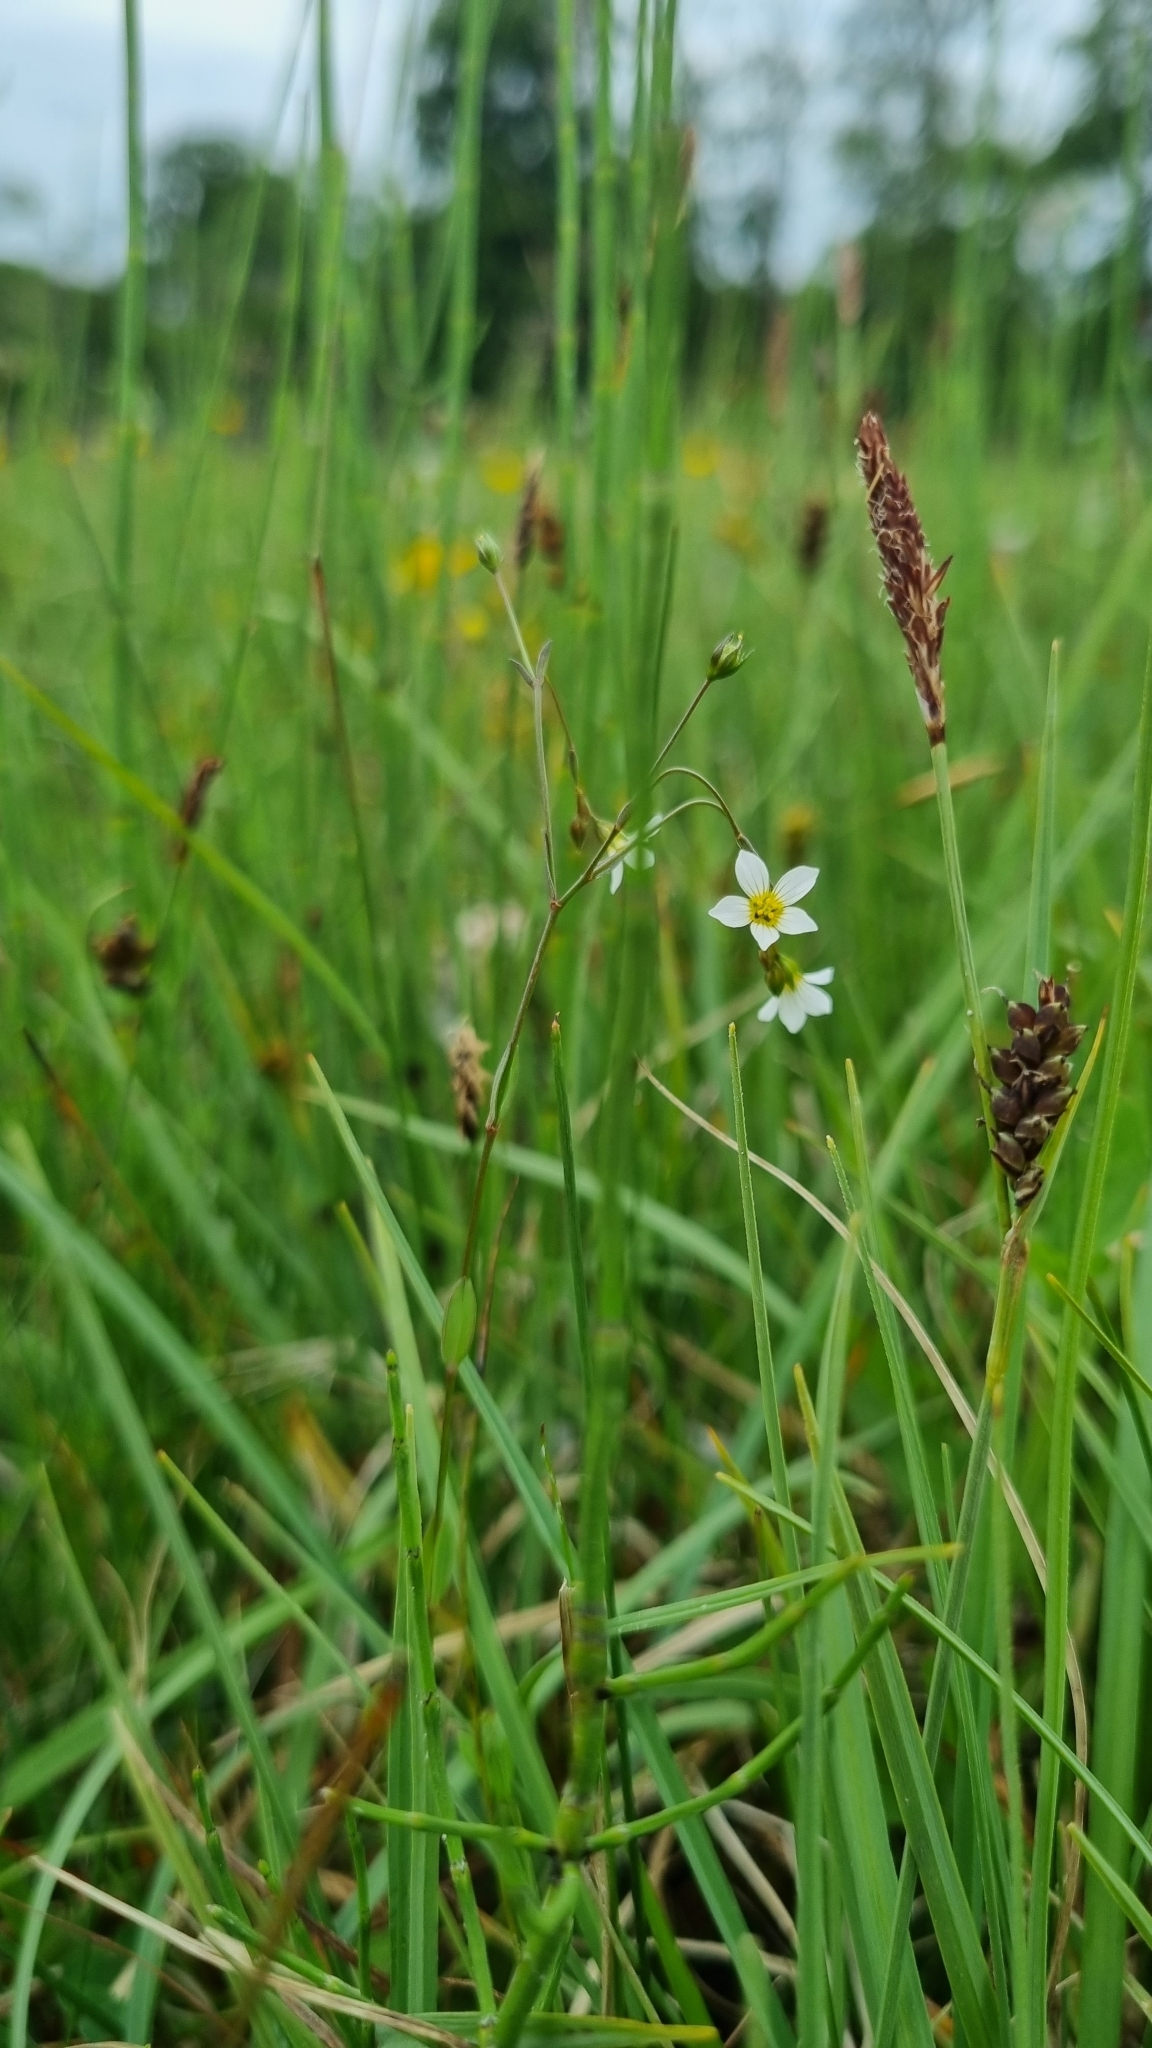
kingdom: Plantae
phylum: Tracheophyta
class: Magnoliopsida
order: Malpighiales
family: Linaceae
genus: Linum
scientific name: Linum catharticum
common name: Fairy flax
